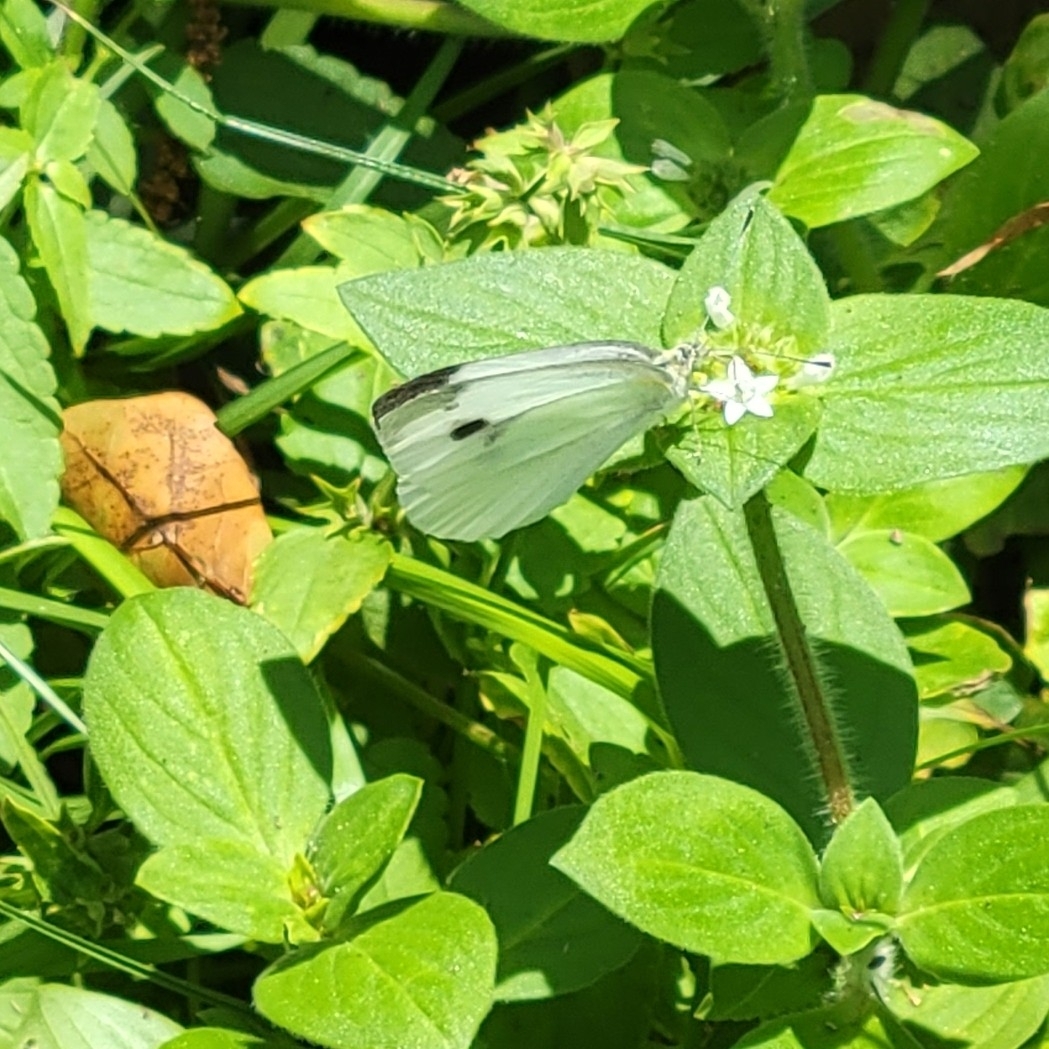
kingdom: Animalia
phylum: Arthropoda
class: Insecta
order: Lepidoptera
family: Pieridae
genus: Pieris
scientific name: Pieris rapae
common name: Small white
